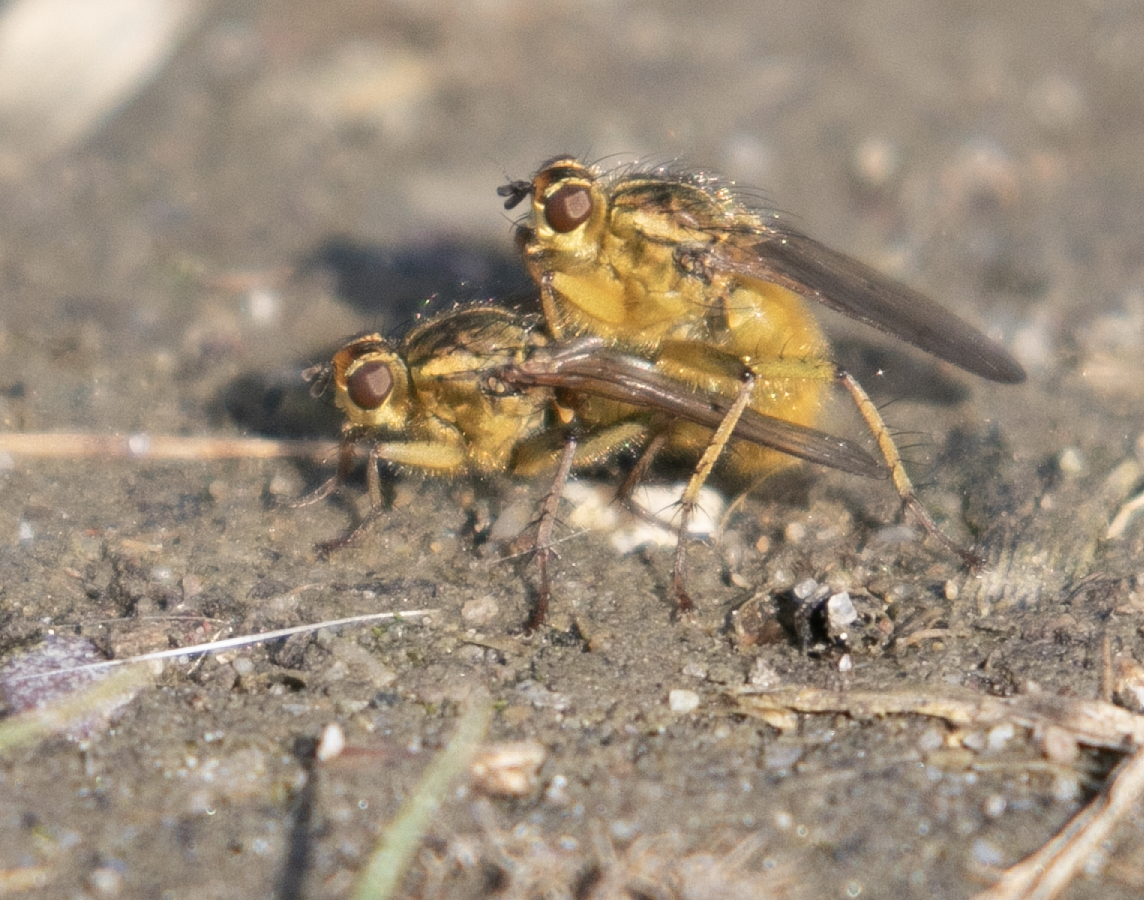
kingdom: Animalia
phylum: Arthropoda
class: Insecta
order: Diptera
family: Scathophagidae
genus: Scathophaga
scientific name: Scathophaga stercoraria
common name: Yellow dung fly
